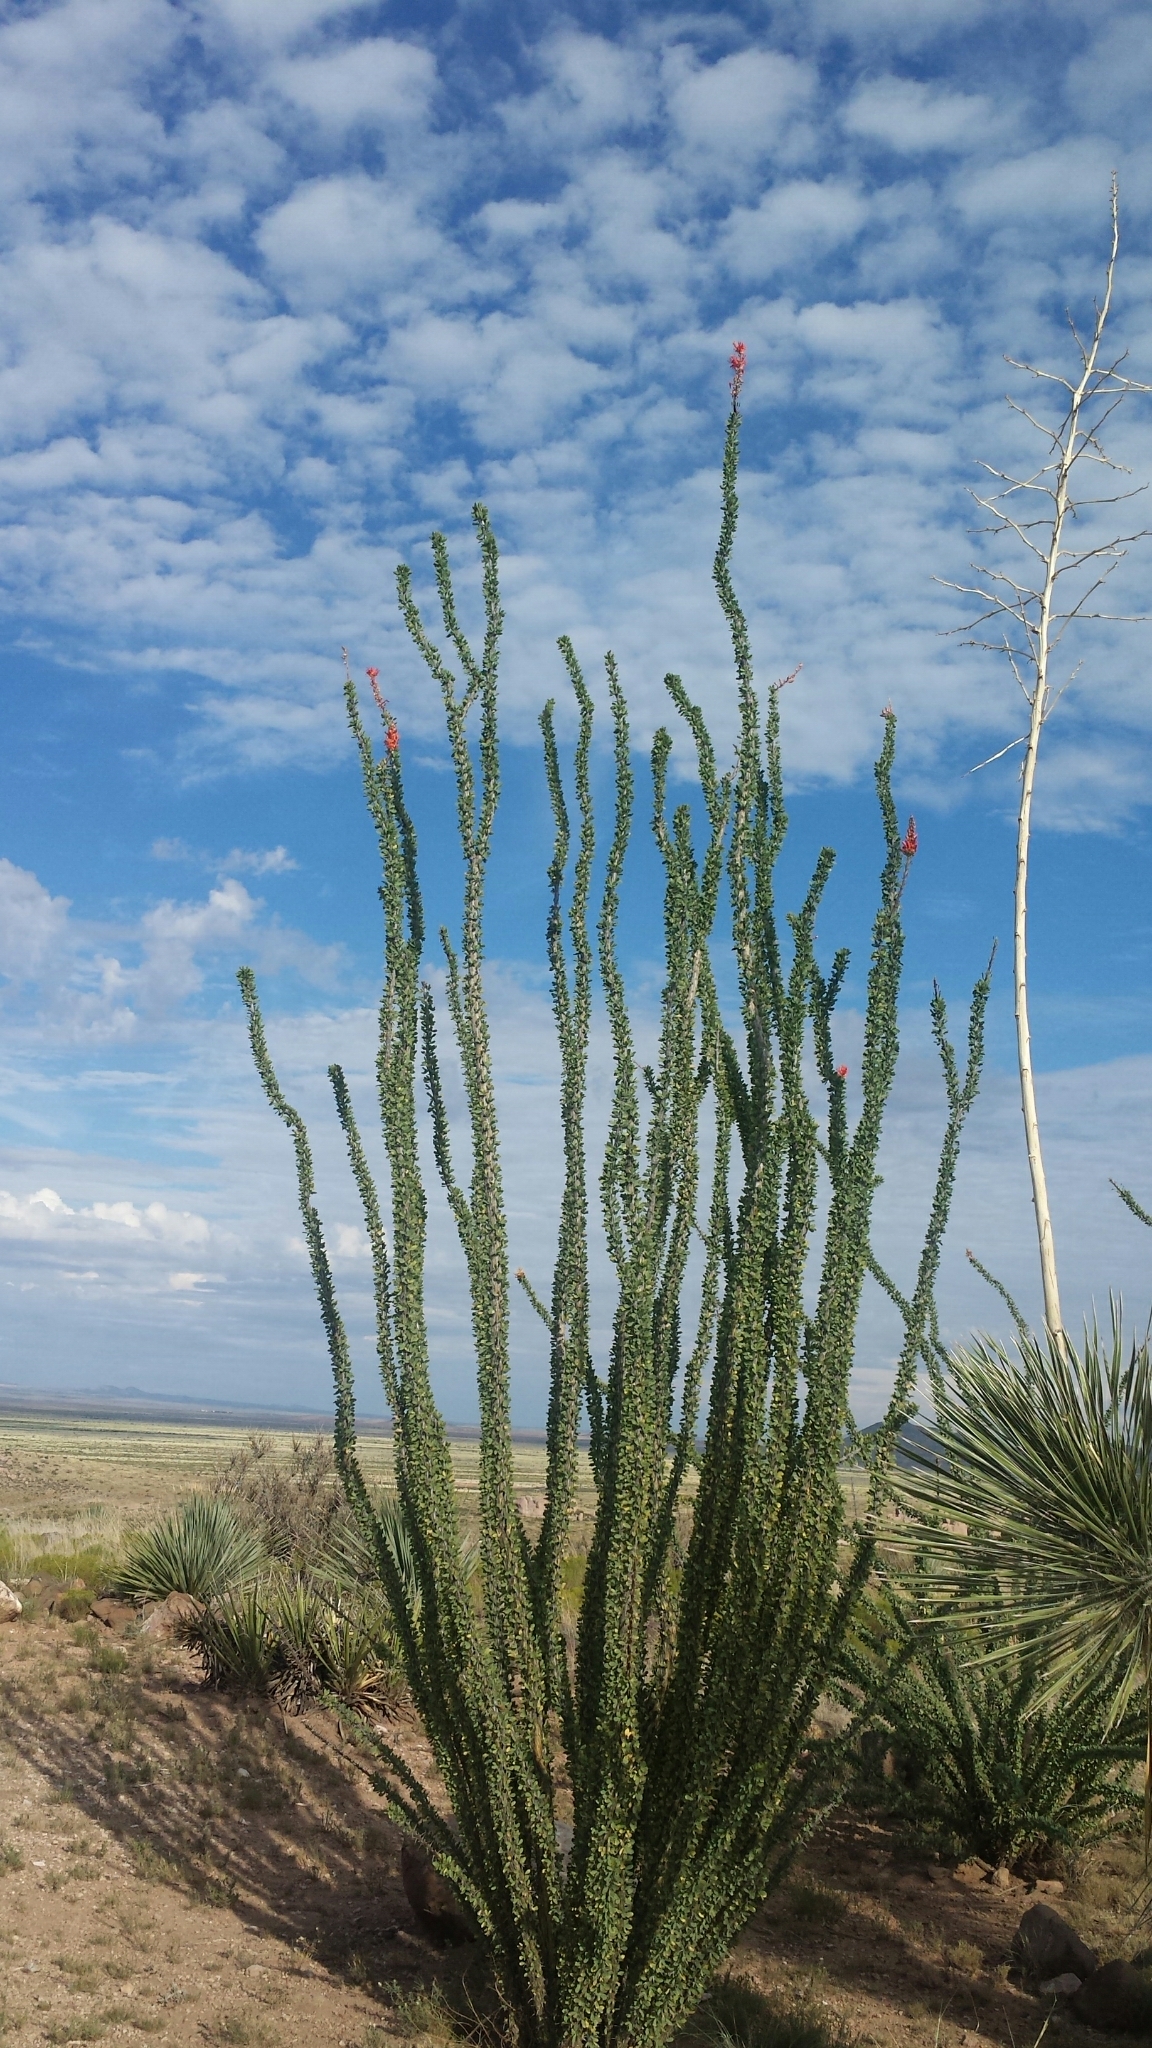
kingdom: Plantae
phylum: Tracheophyta
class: Magnoliopsida
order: Ericales
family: Fouquieriaceae
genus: Fouquieria
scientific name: Fouquieria splendens
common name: Vine-cactus
